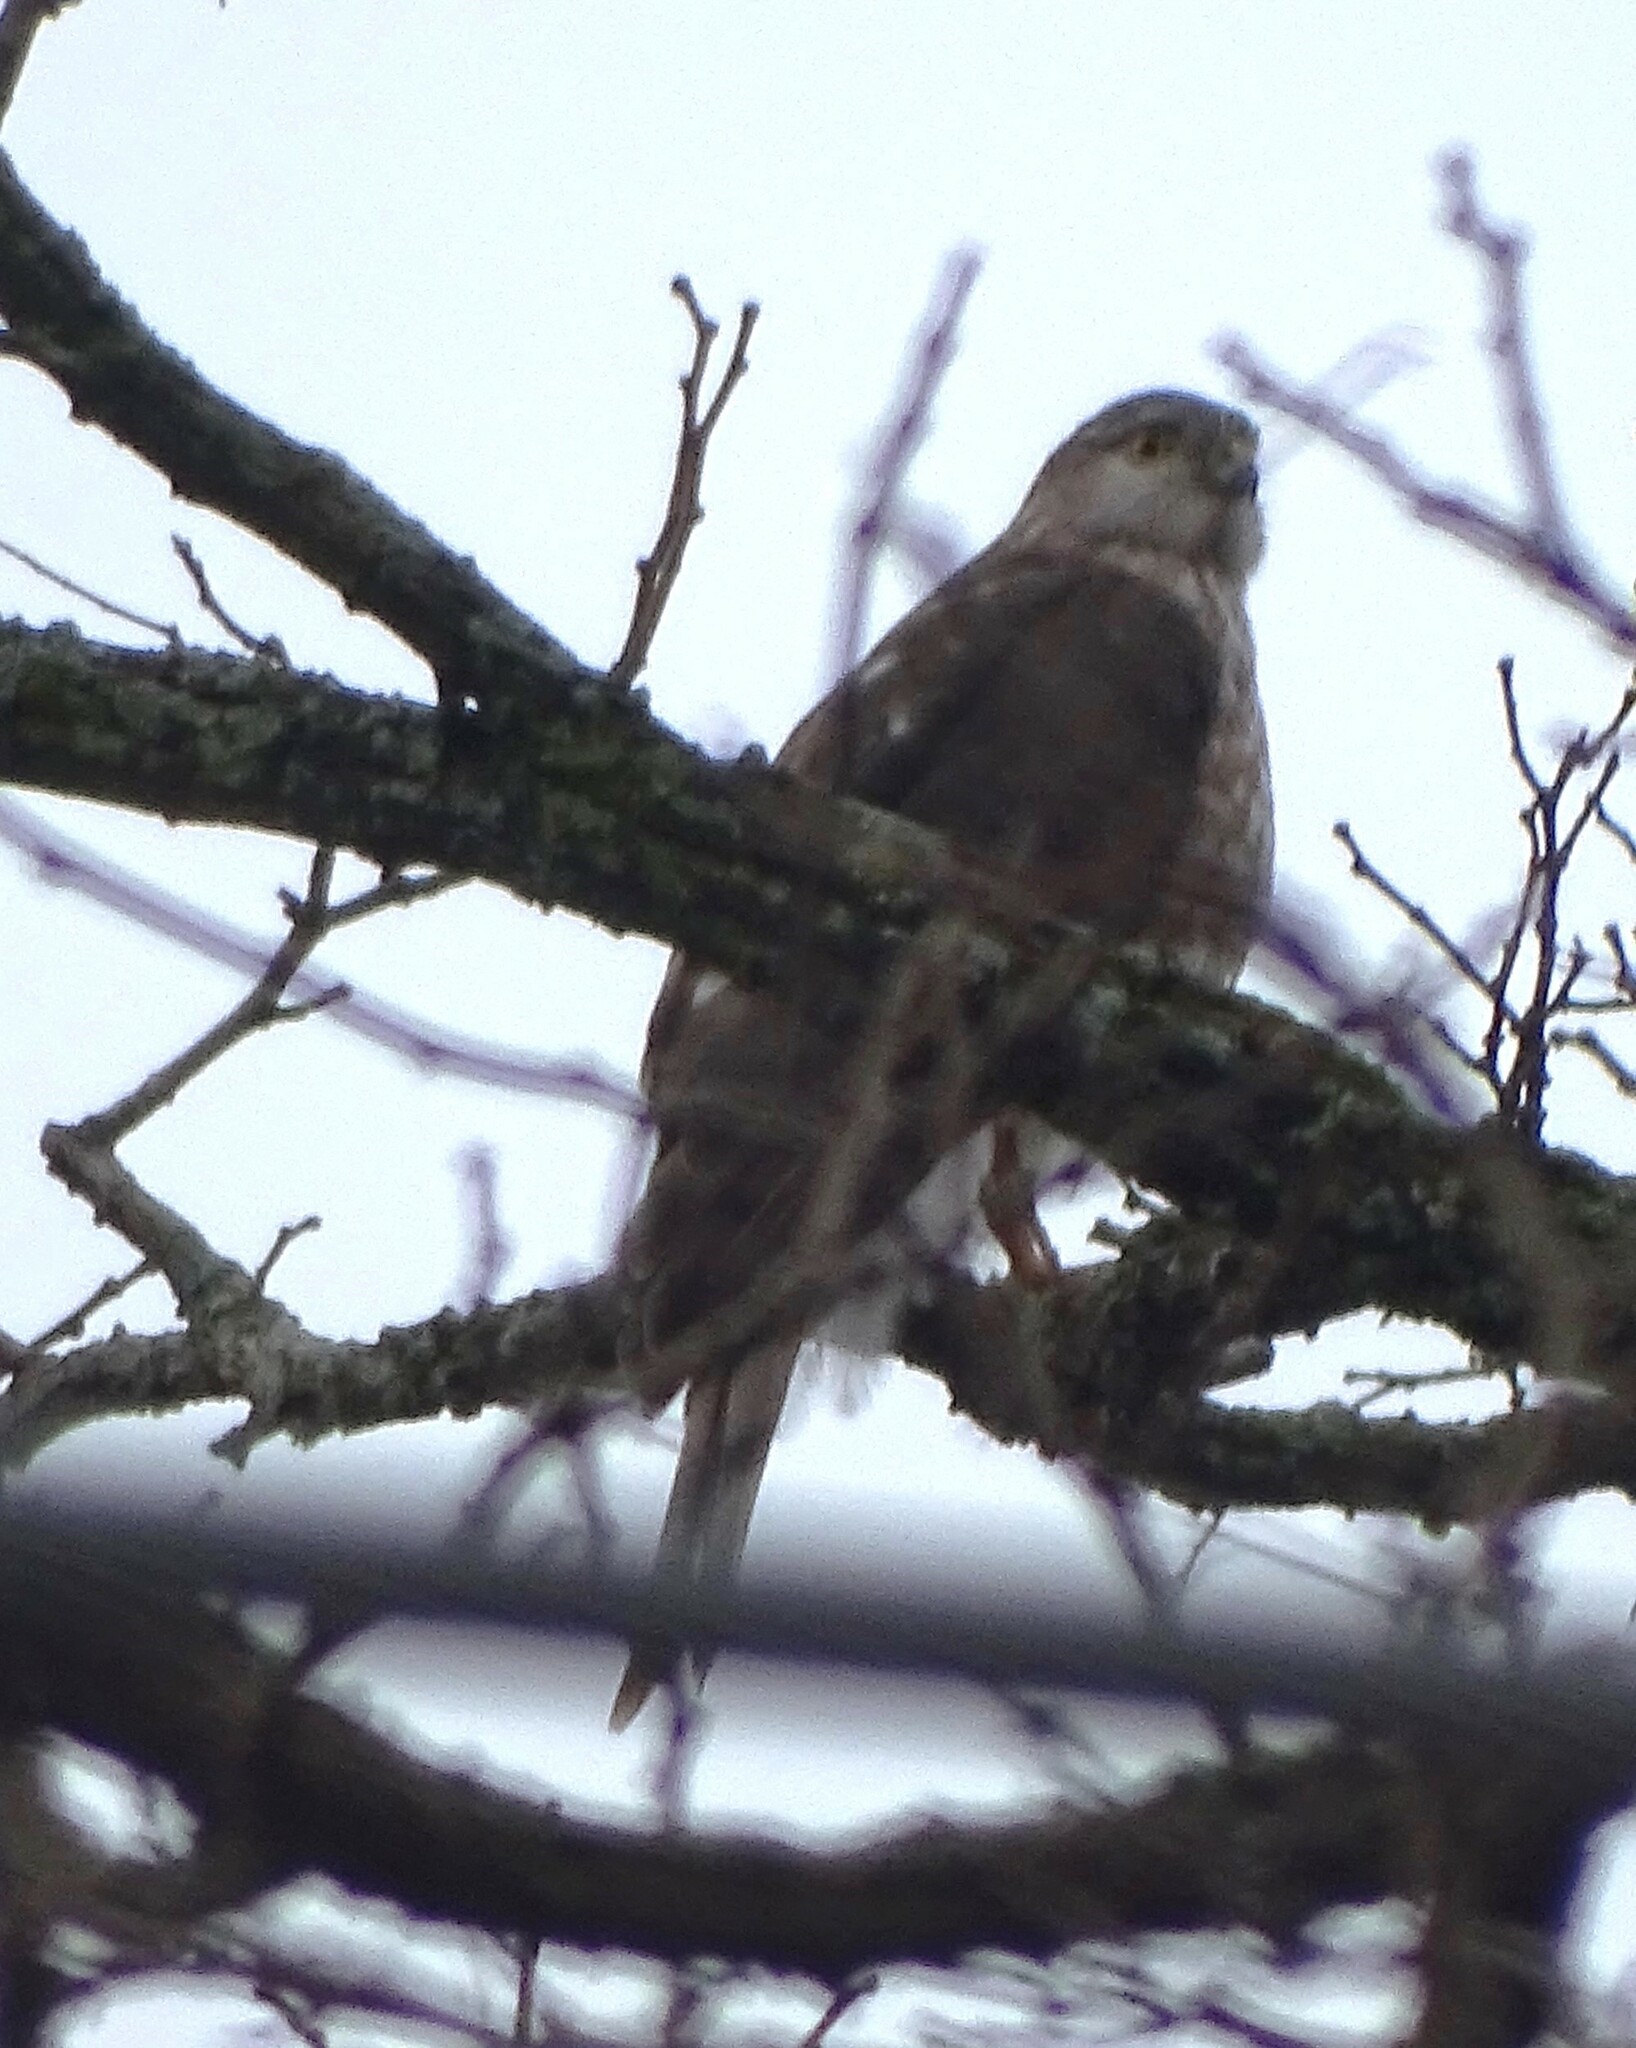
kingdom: Animalia
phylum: Chordata
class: Aves
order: Accipitriformes
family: Accipitridae
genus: Accipiter
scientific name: Accipiter striatus
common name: Sharp-shinned hawk
